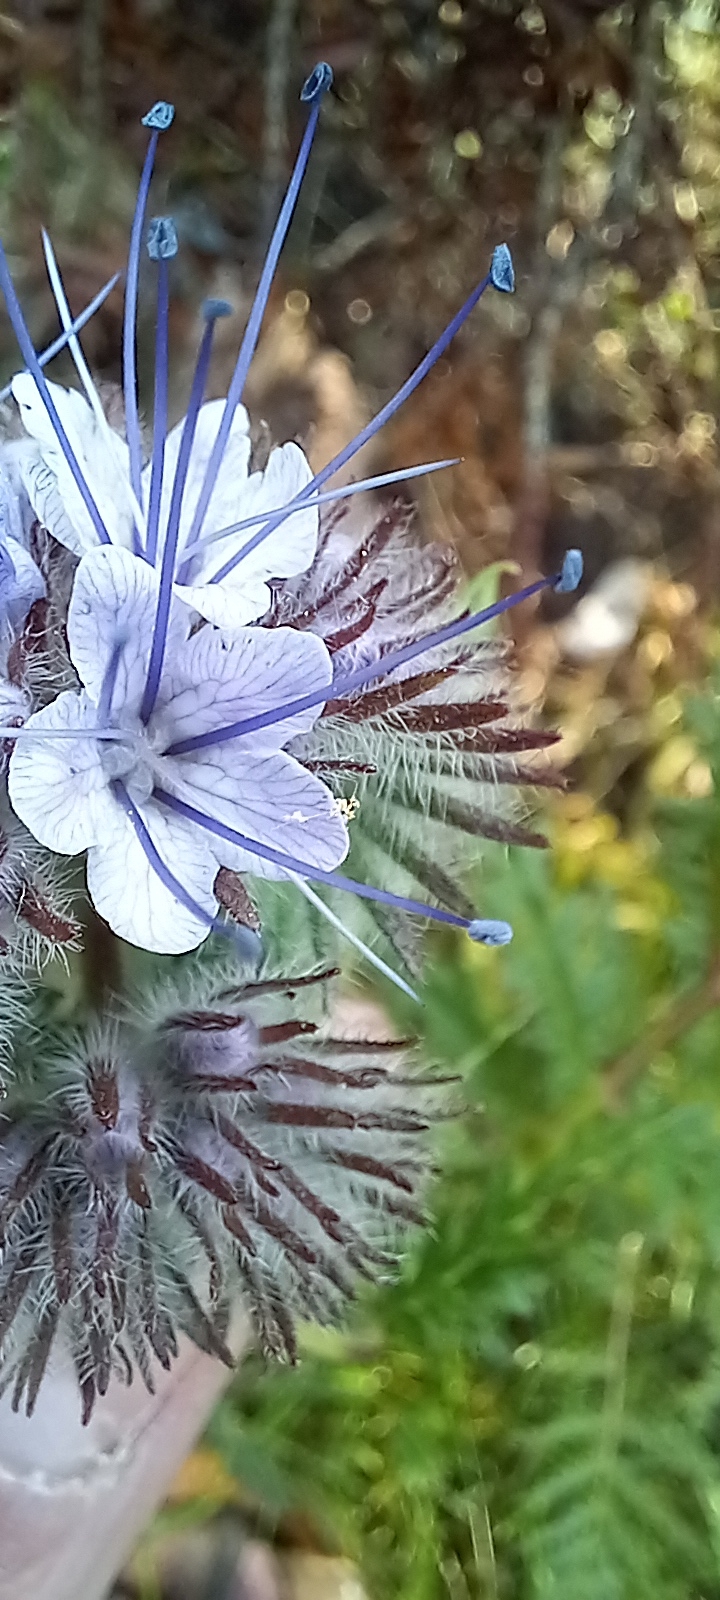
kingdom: Plantae
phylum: Tracheophyta
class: Magnoliopsida
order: Boraginales
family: Hydrophyllaceae
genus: Phacelia
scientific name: Phacelia tanacetifolia
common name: Phacelia
